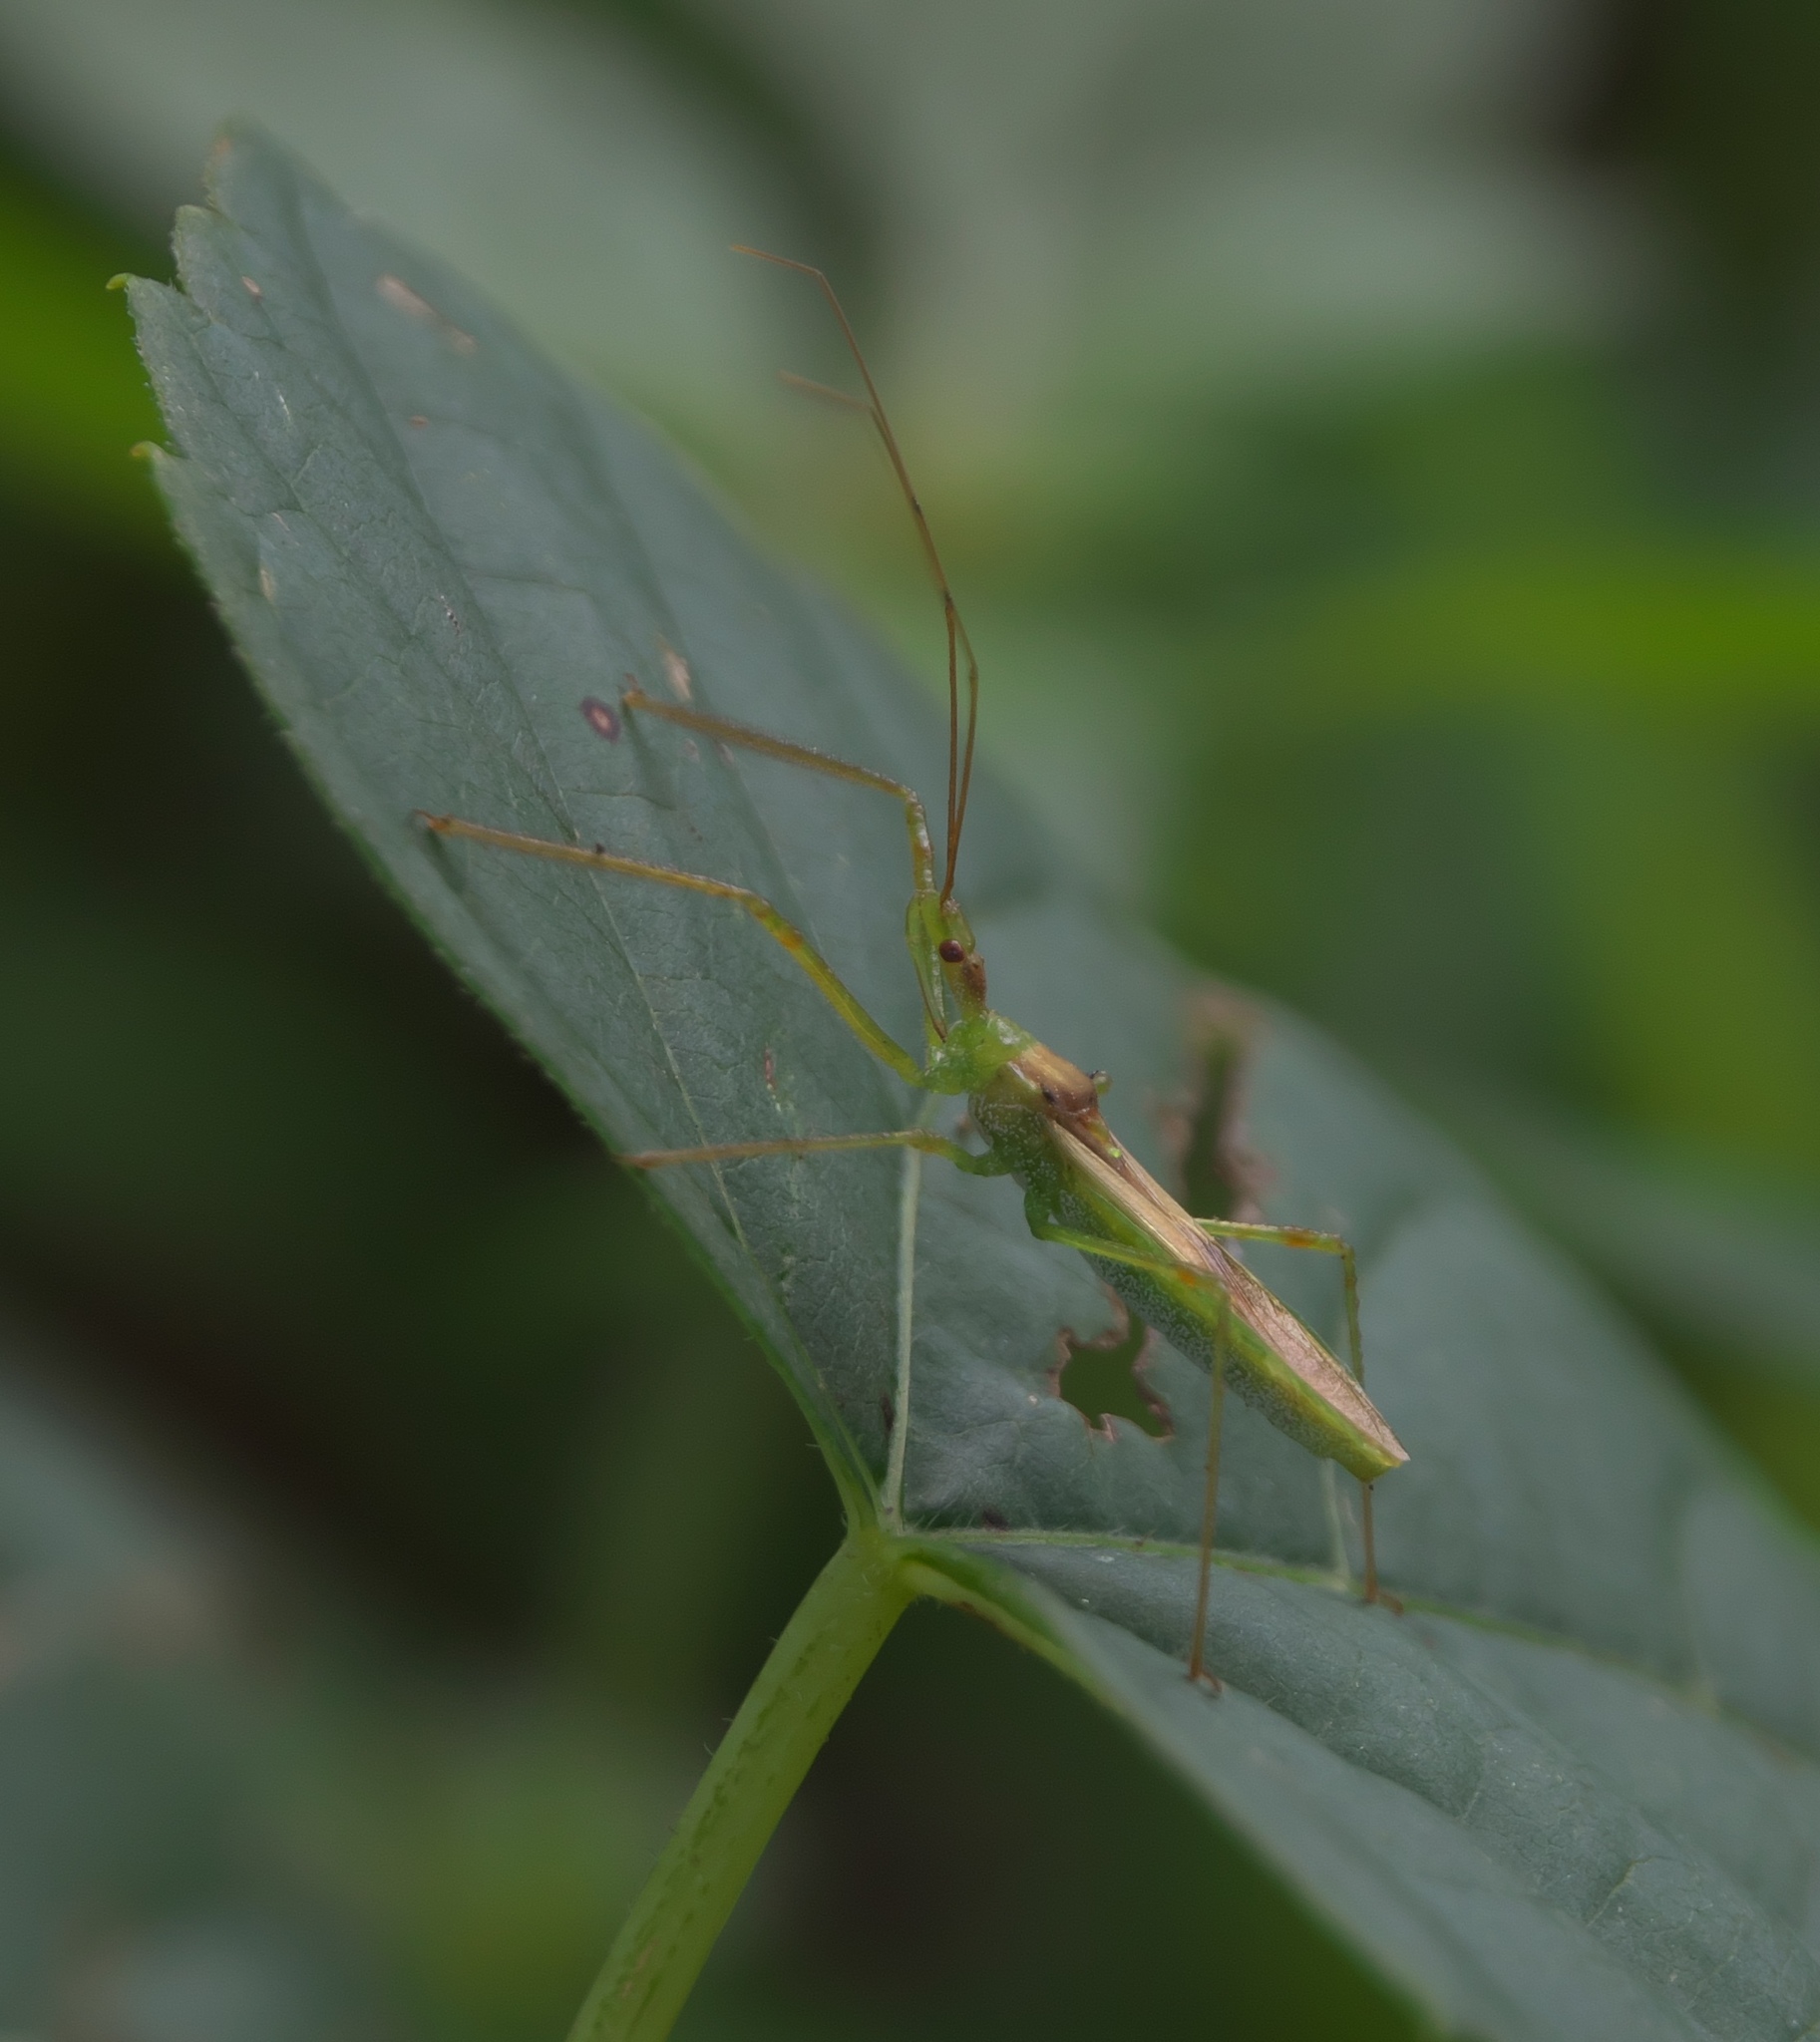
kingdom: Animalia
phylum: Arthropoda
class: Insecta
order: Hemiptera
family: Reduviidae
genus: Zelus
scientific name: Zelus luridus
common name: Pale green assassin bug
